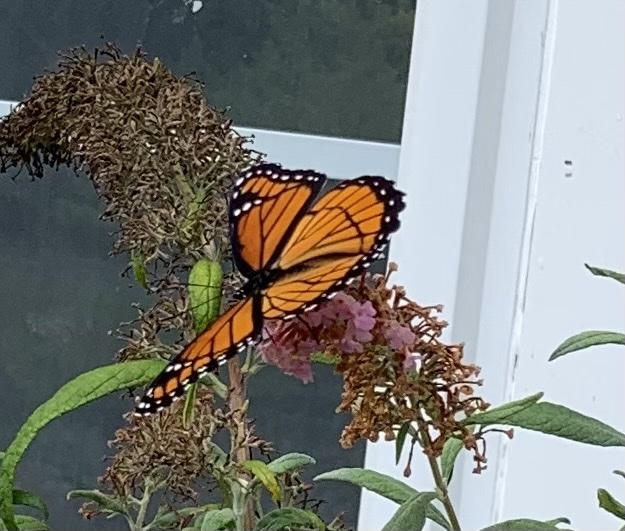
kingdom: Animalia
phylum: Arthropoda
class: Insecta
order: Lepidoptera
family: Nymphalidae
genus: Limenitis
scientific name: Limenitis archippus
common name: Viceroy
